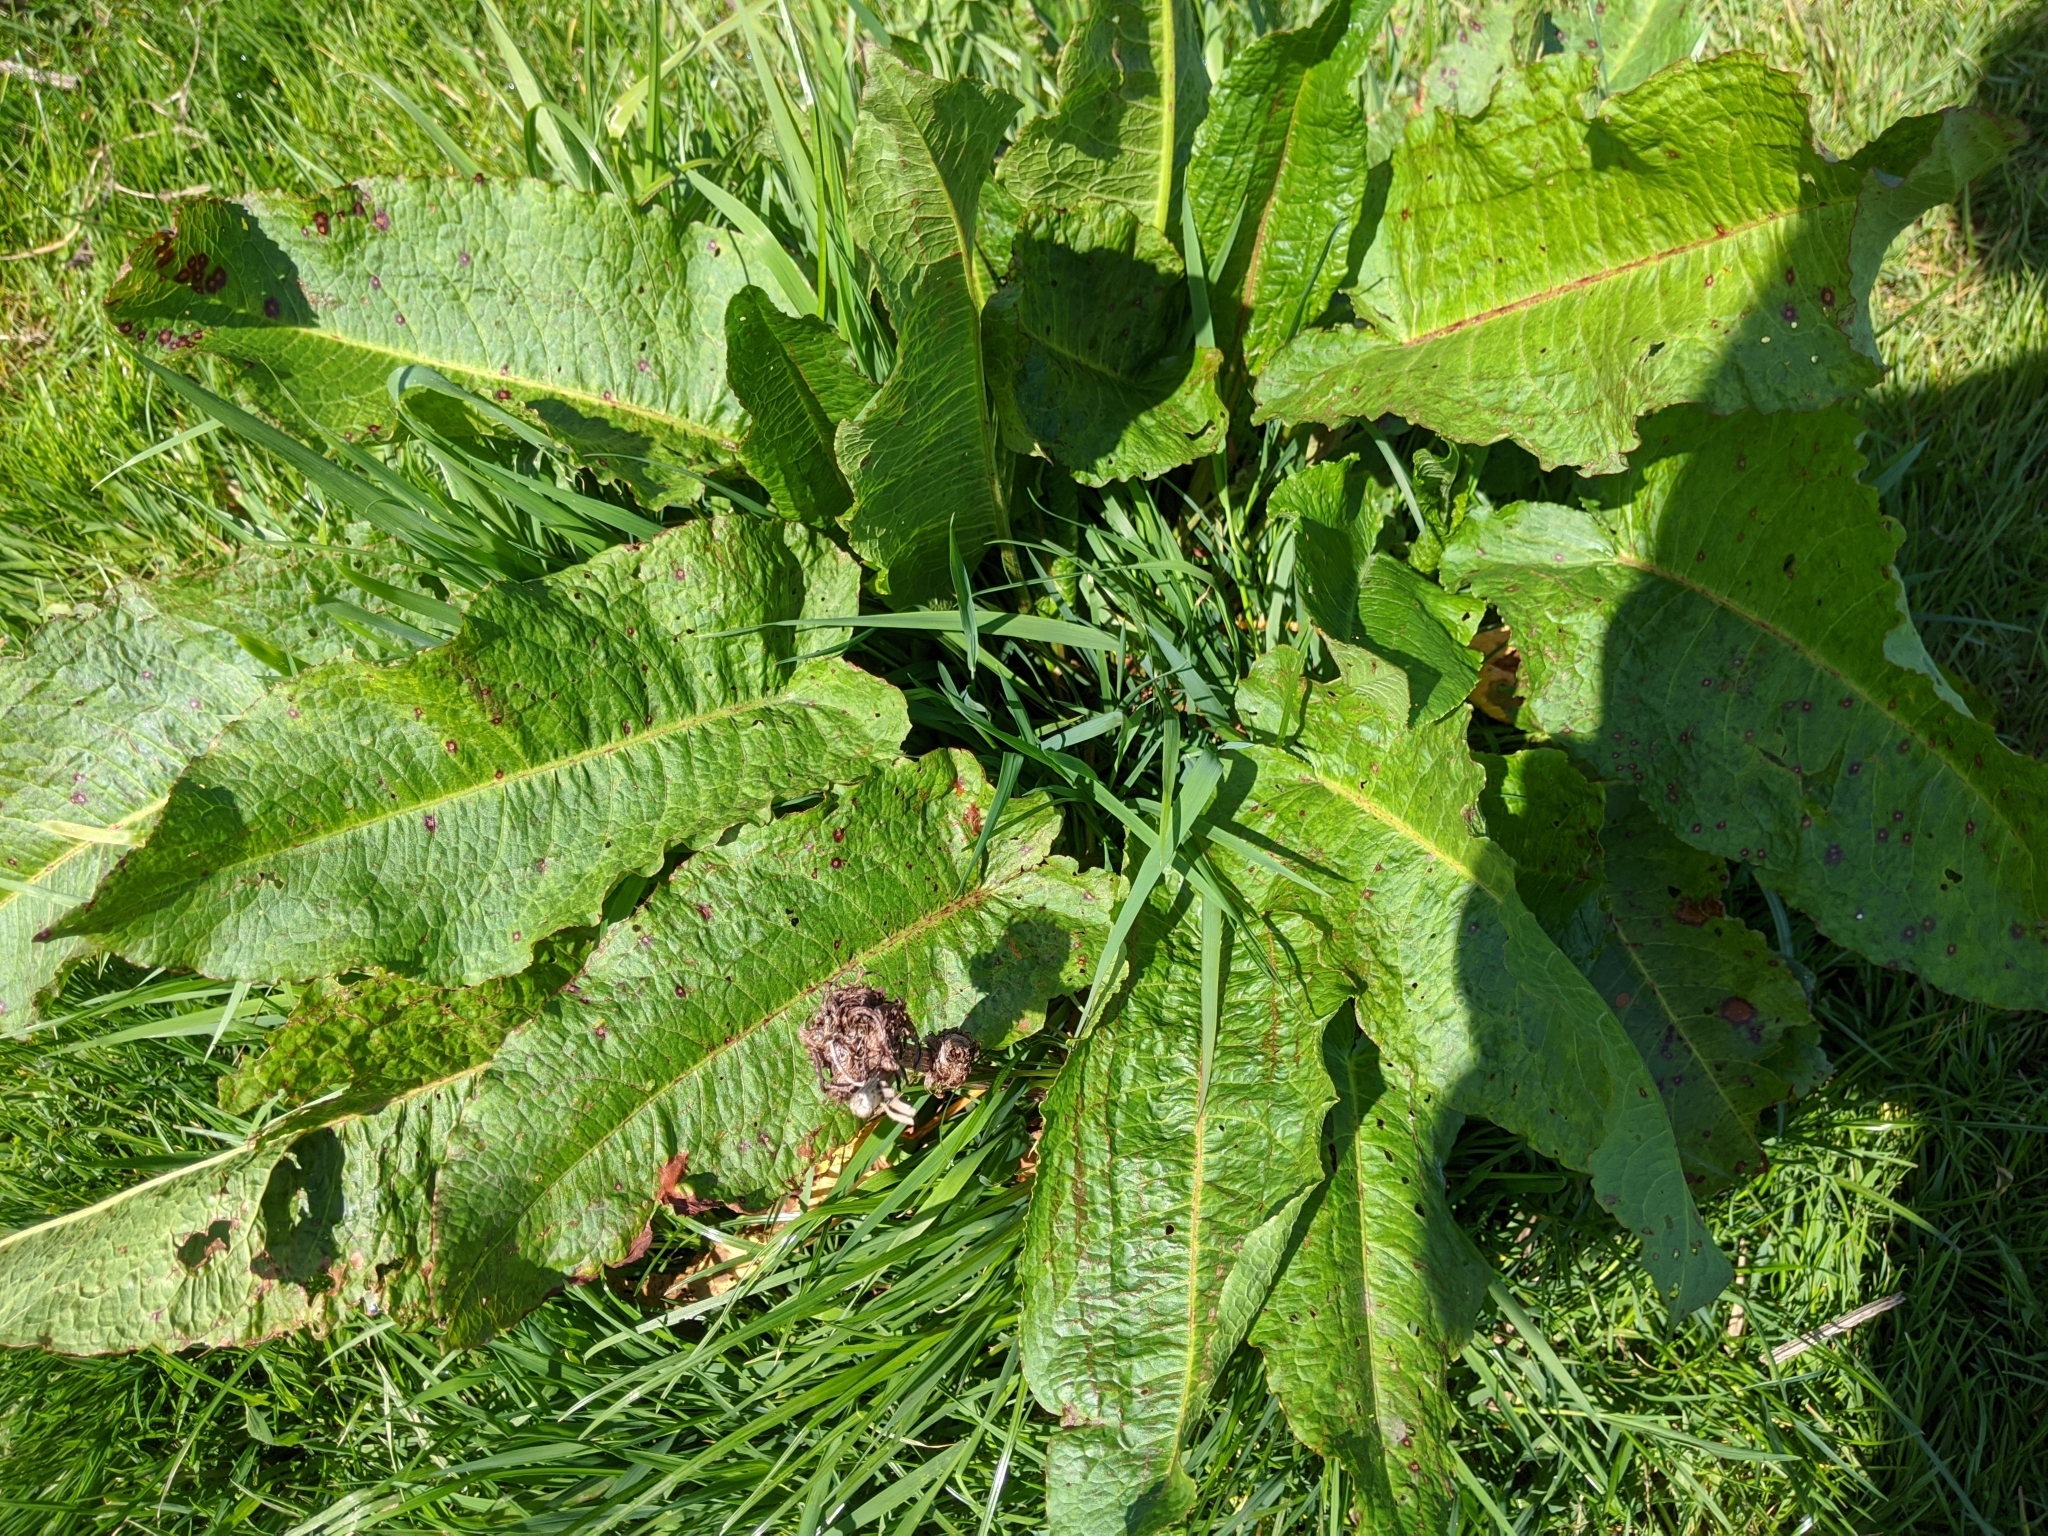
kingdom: Plantae
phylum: Tracheophyta
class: Magnoliopsida
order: Caryophyllales
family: Polygonaceae
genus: Rumex
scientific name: Rumex obtusifolius
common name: Bitter dock
